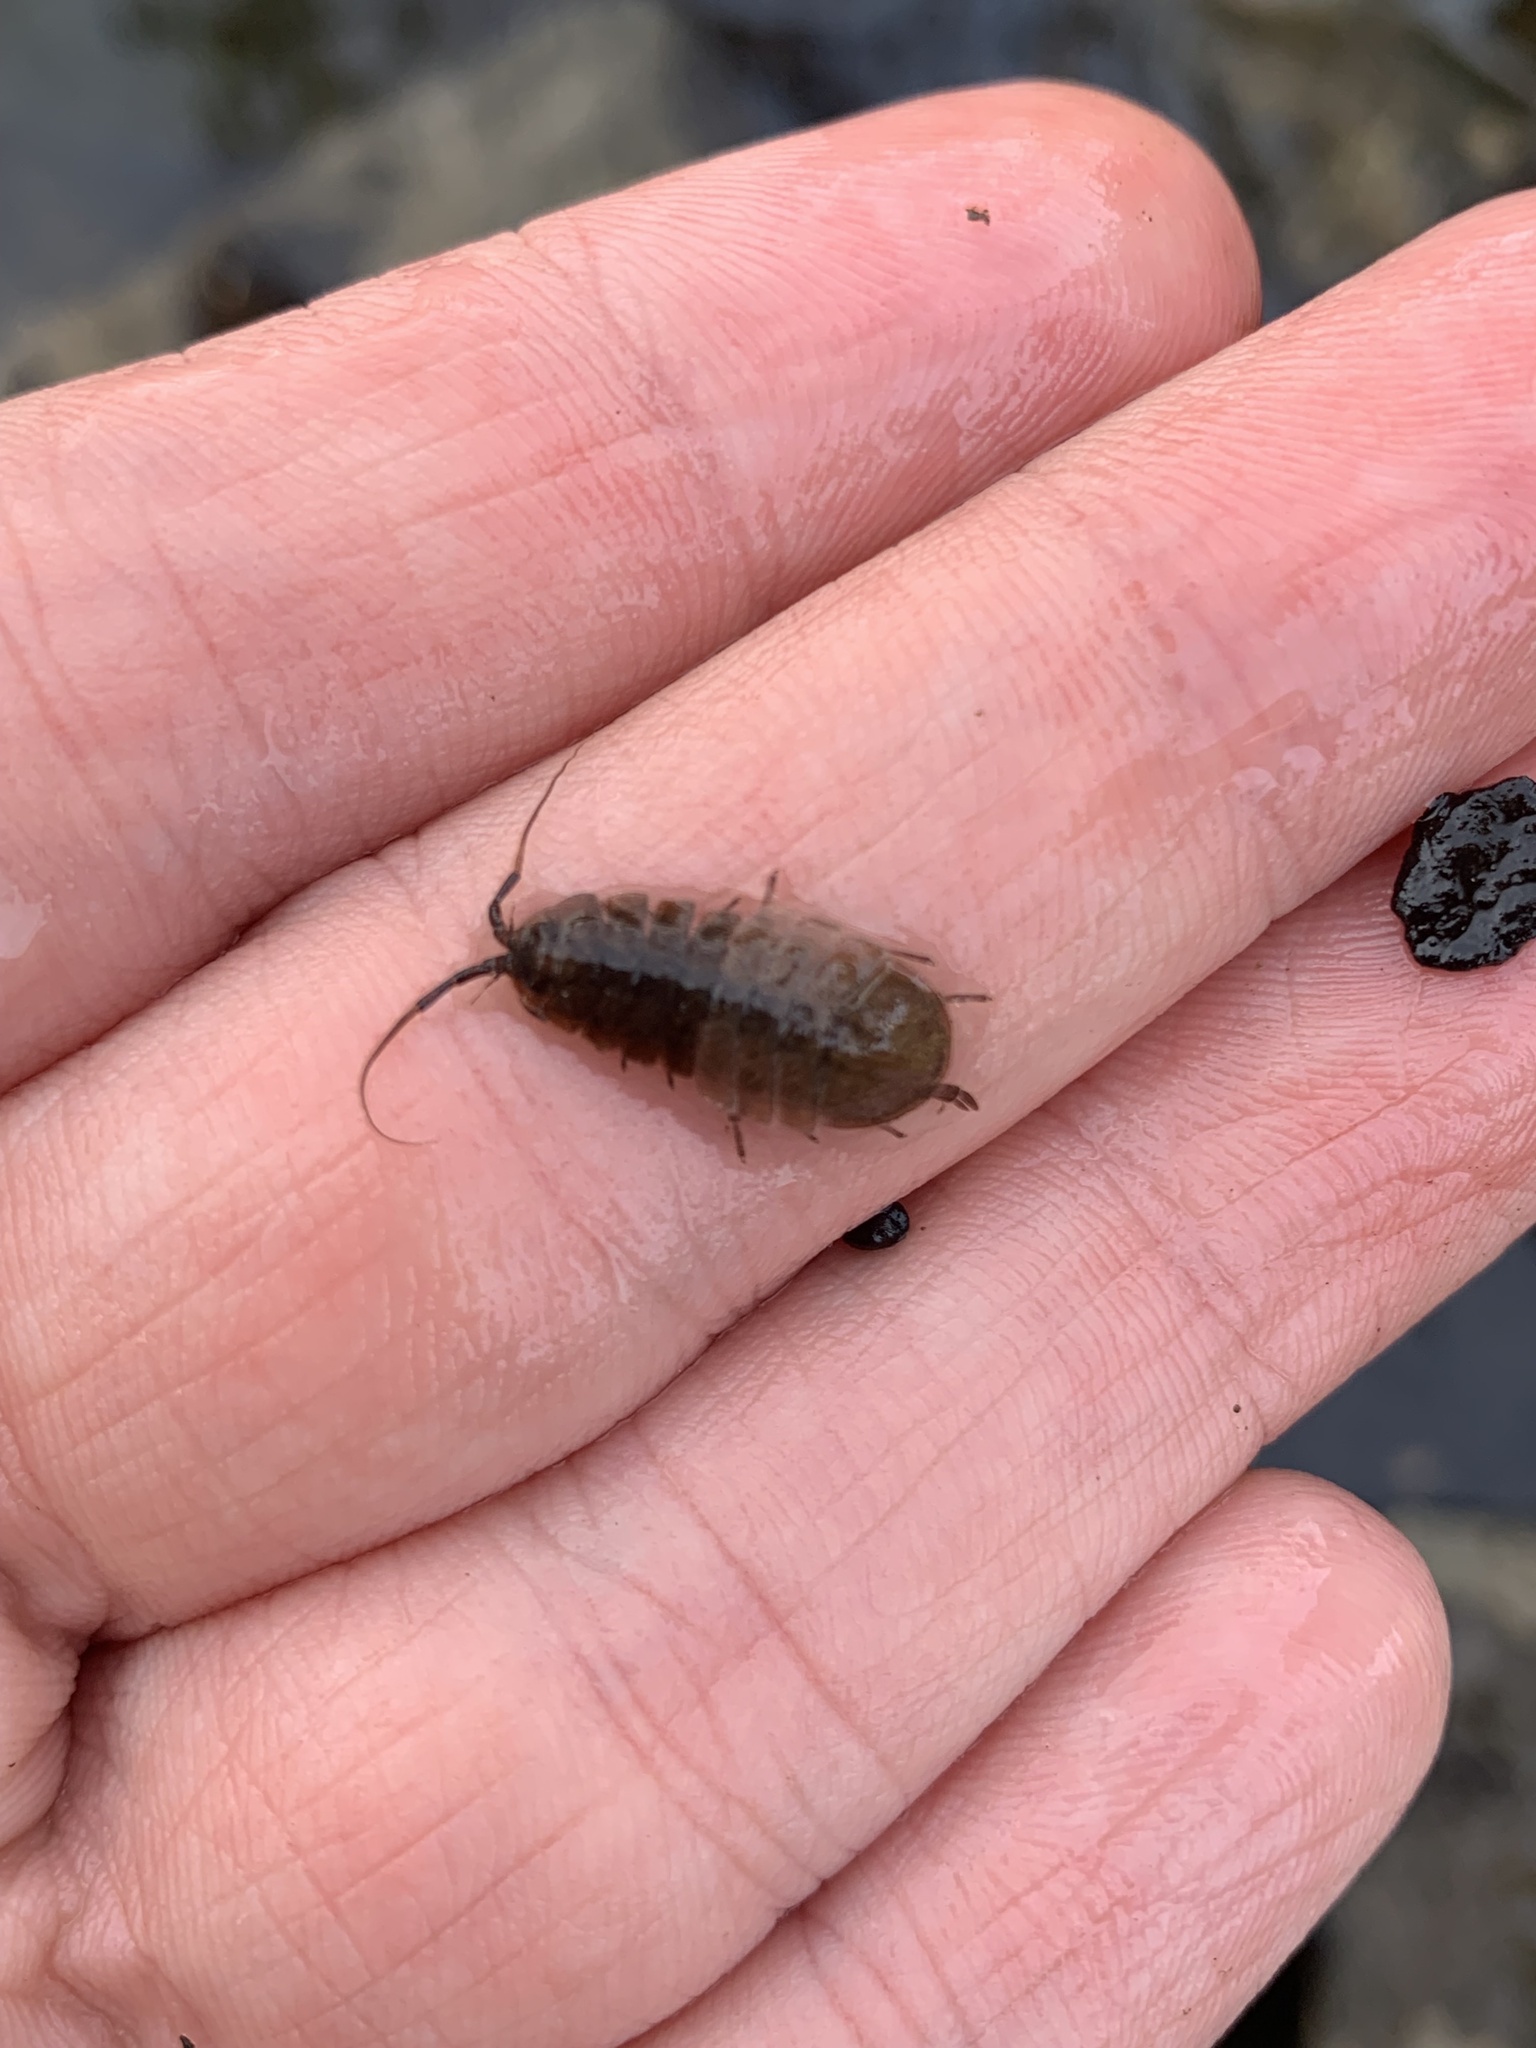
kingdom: Animalia
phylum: Arthropoda
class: Malacostraca
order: Isopoda
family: Asellidae
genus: Lirceus
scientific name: Lirceus fontinalis
